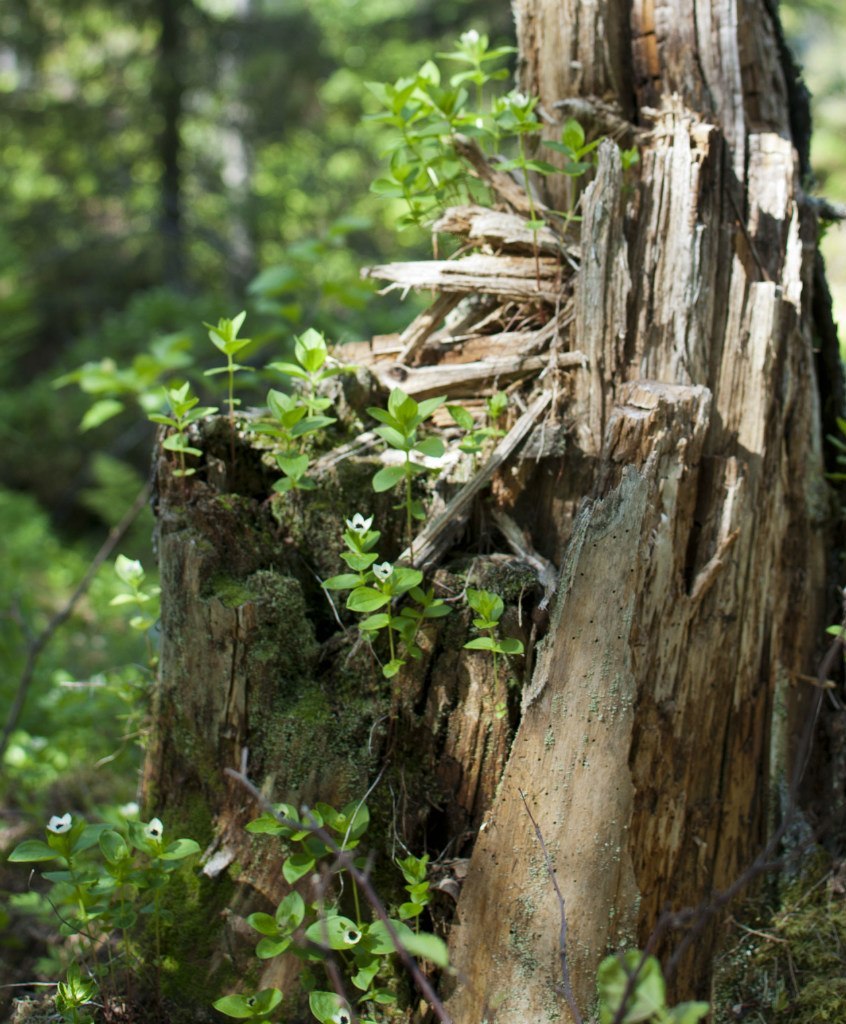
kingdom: Plantae
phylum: Tracheophyta
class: Magnoliopsida
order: Cornales
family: Cornaceae
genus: Cornus
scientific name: Cornus suecica
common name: Dwarf cornel
